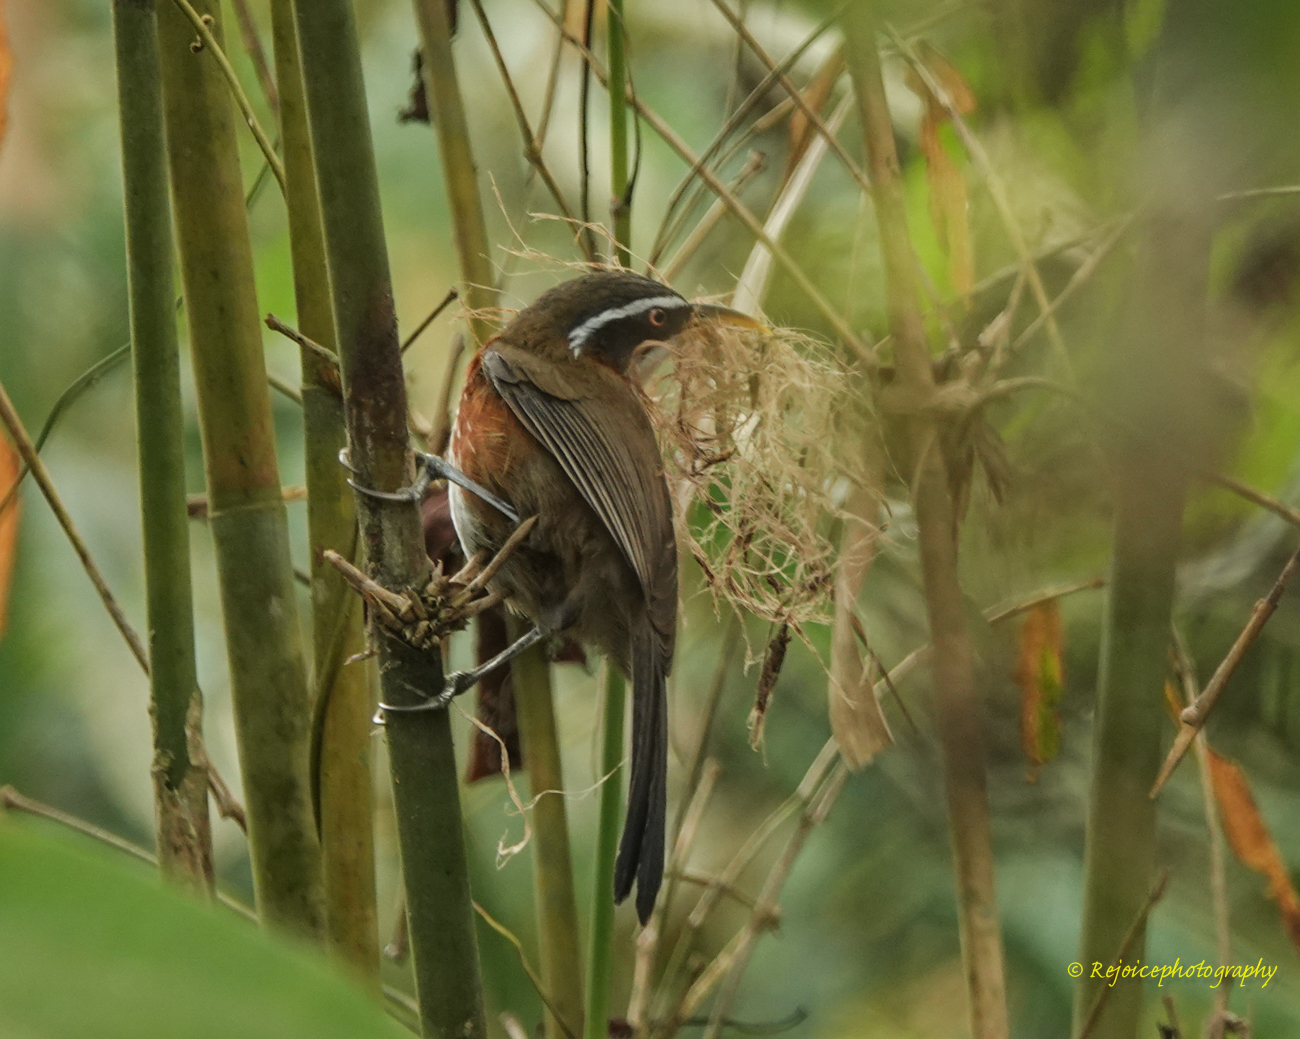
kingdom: Animalia
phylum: Chordata
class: Aves
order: Passeriformes
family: Timaliidae
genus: Pomatorhinus
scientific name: Pomatorhinus schisticeps
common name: White-browed scimitar babbler
